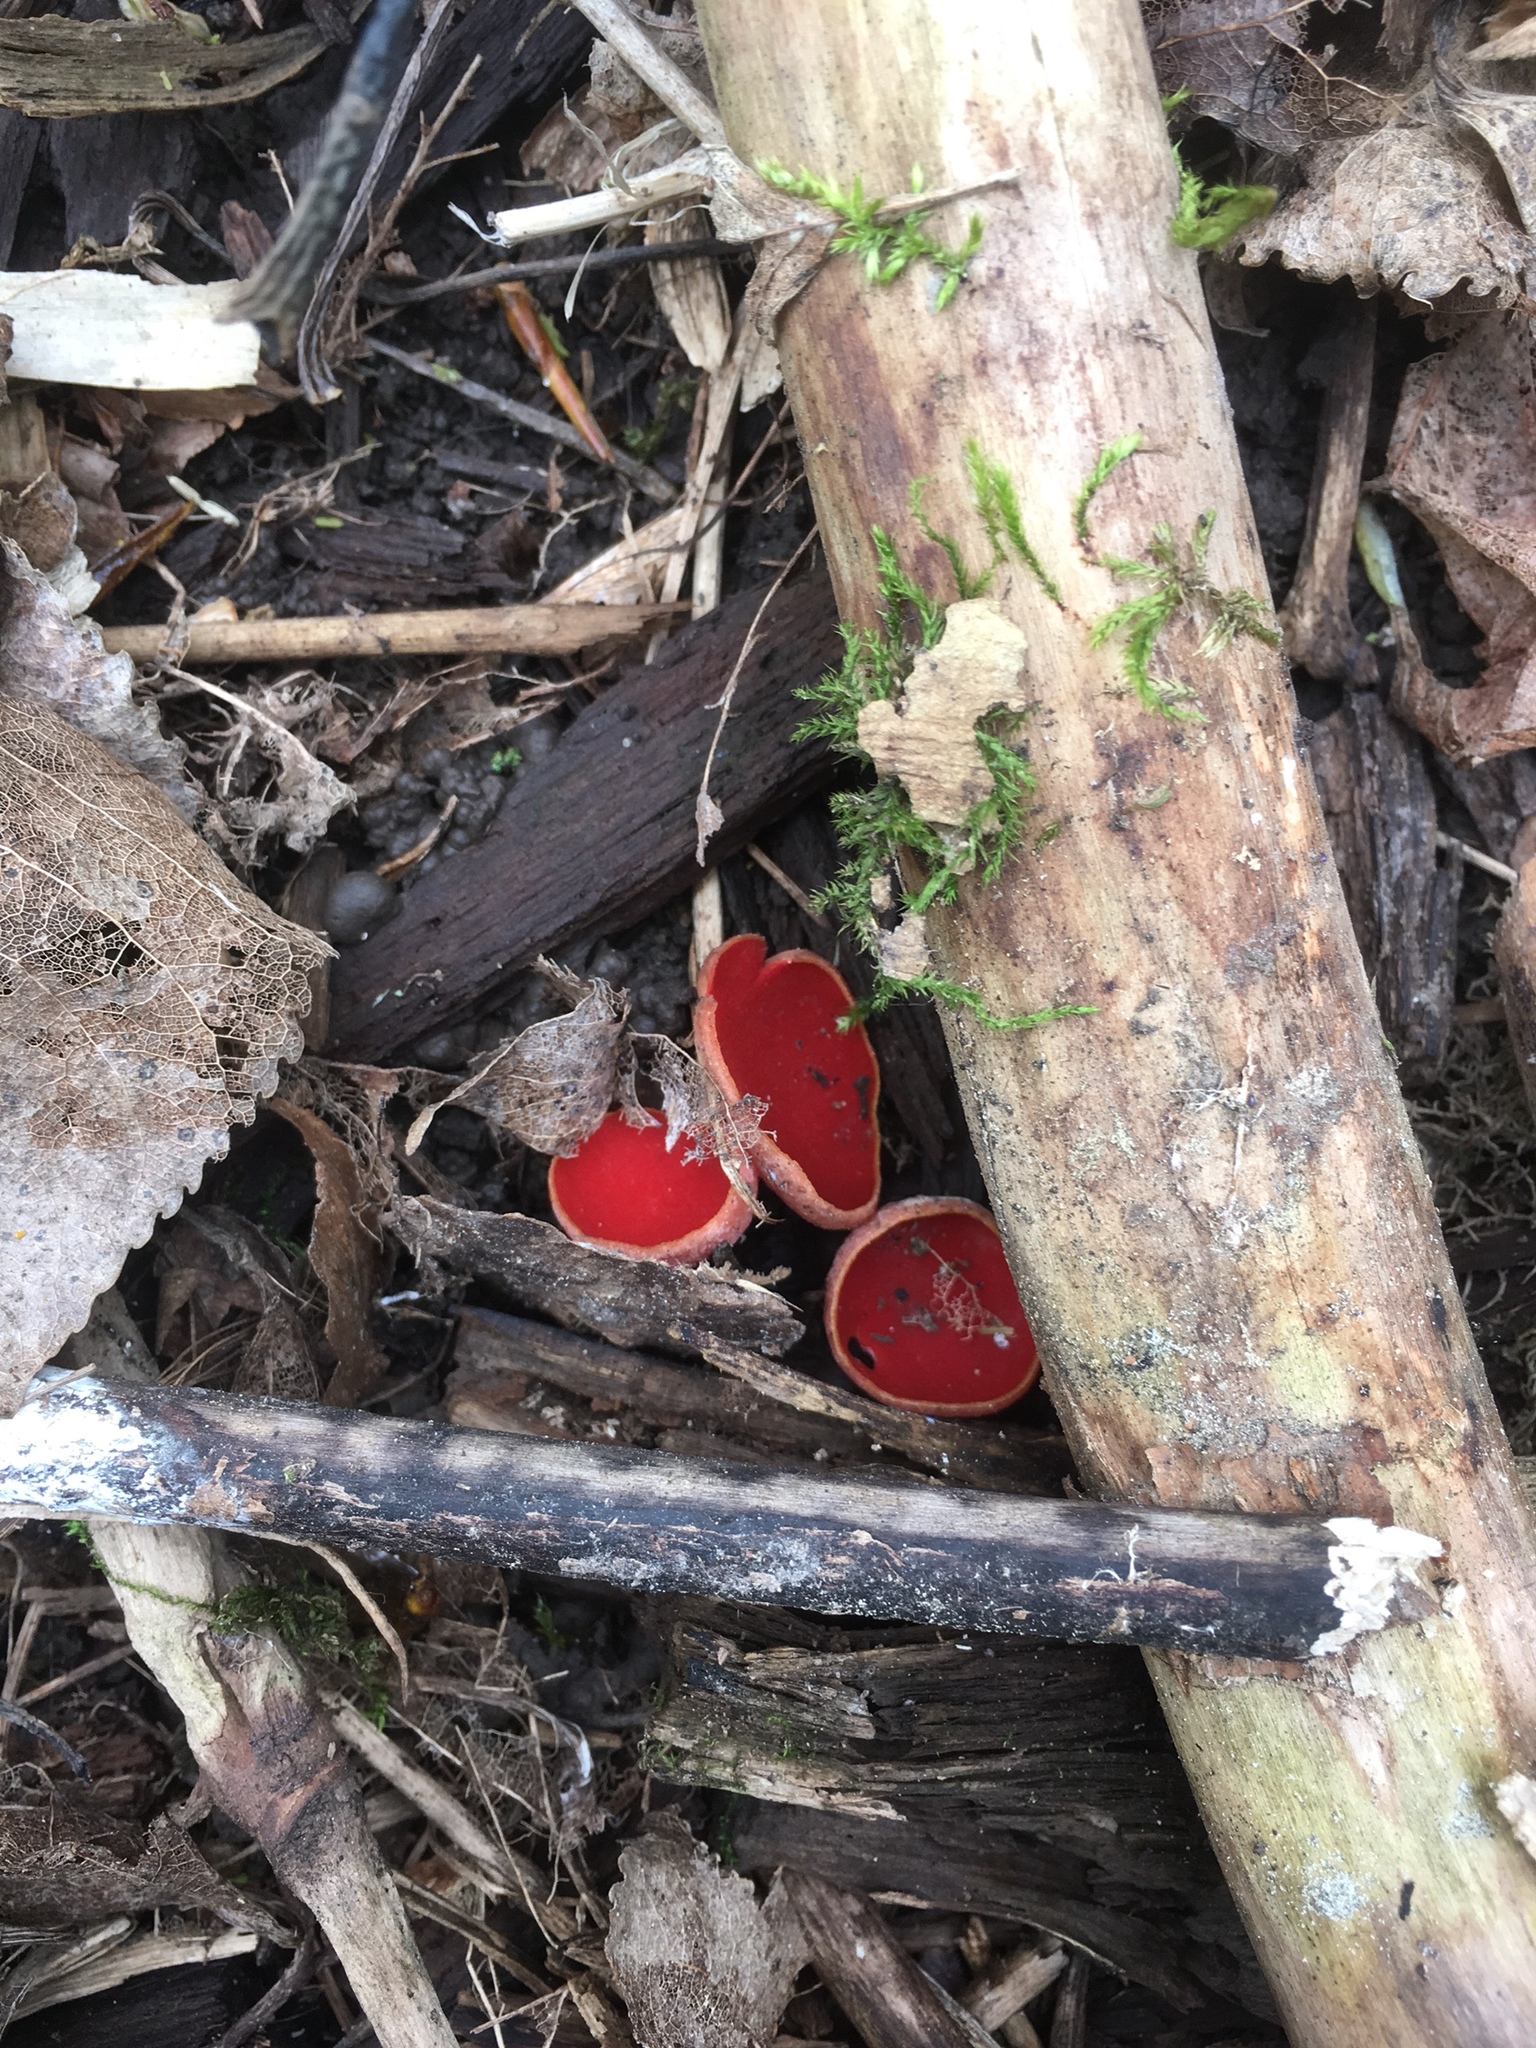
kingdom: Fungi
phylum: Ascomycota
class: Pezizomycetes
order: Pezizales
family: Sarcoscyphaceae
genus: Sarcoscypha
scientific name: Sarcoscypha
